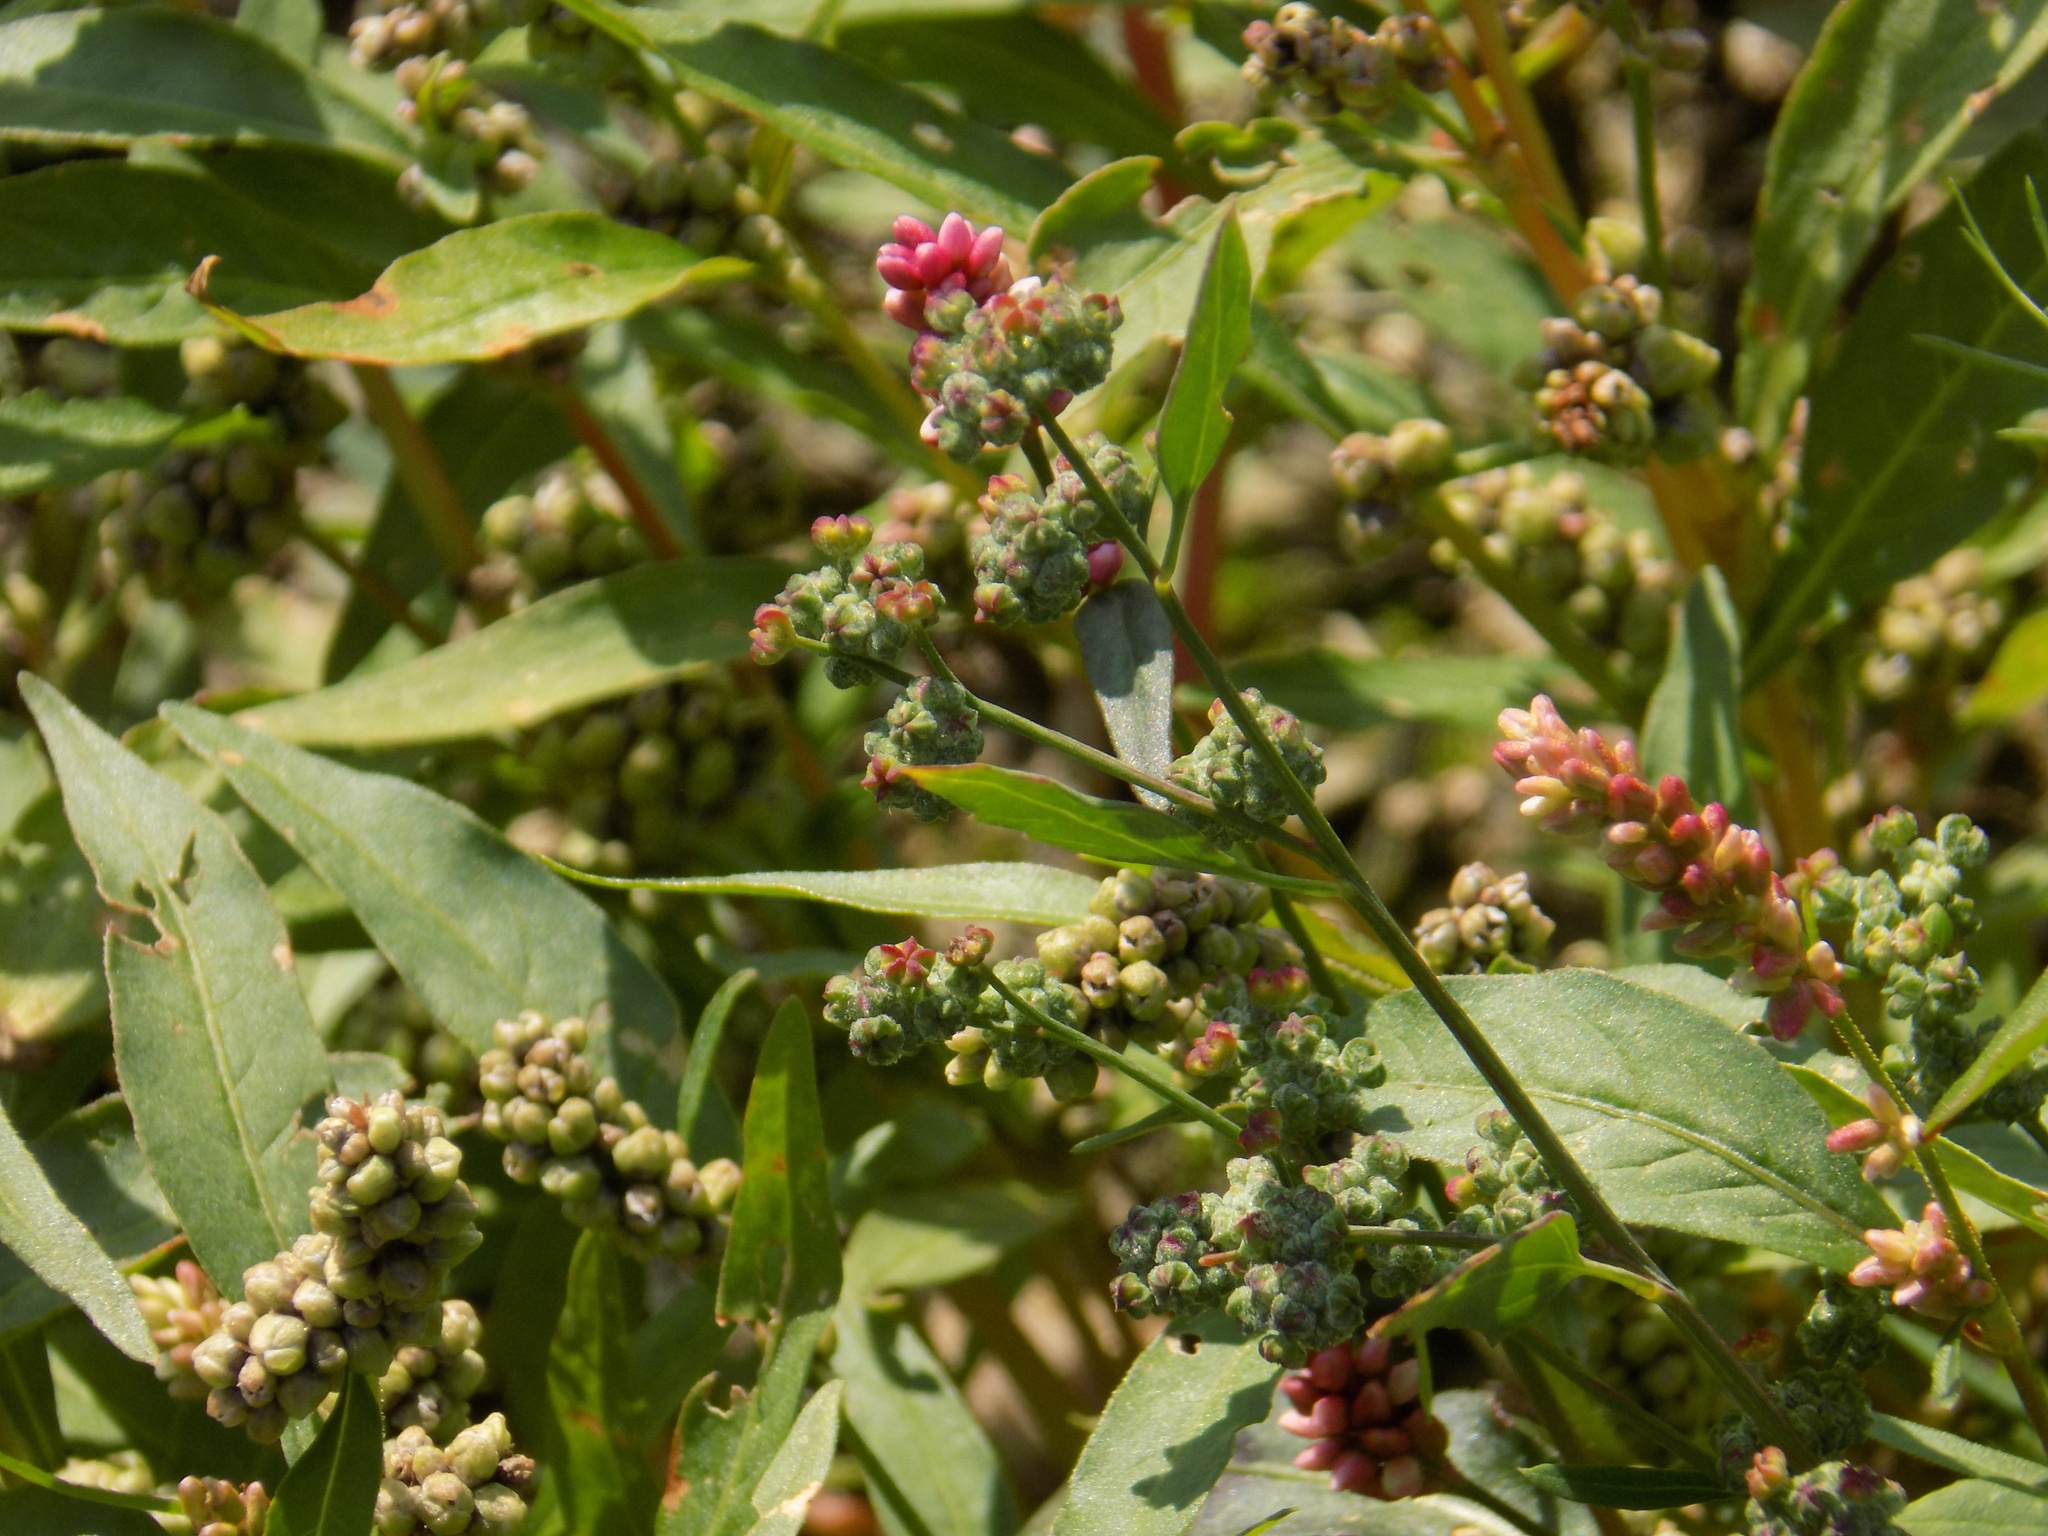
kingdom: Plantae
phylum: Tracheophyta
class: Magnoliopsida
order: Caryophyllales
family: Polygonaceae
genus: Persicaria
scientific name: Persicaria lapathifolia
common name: Curlytop knotweed
